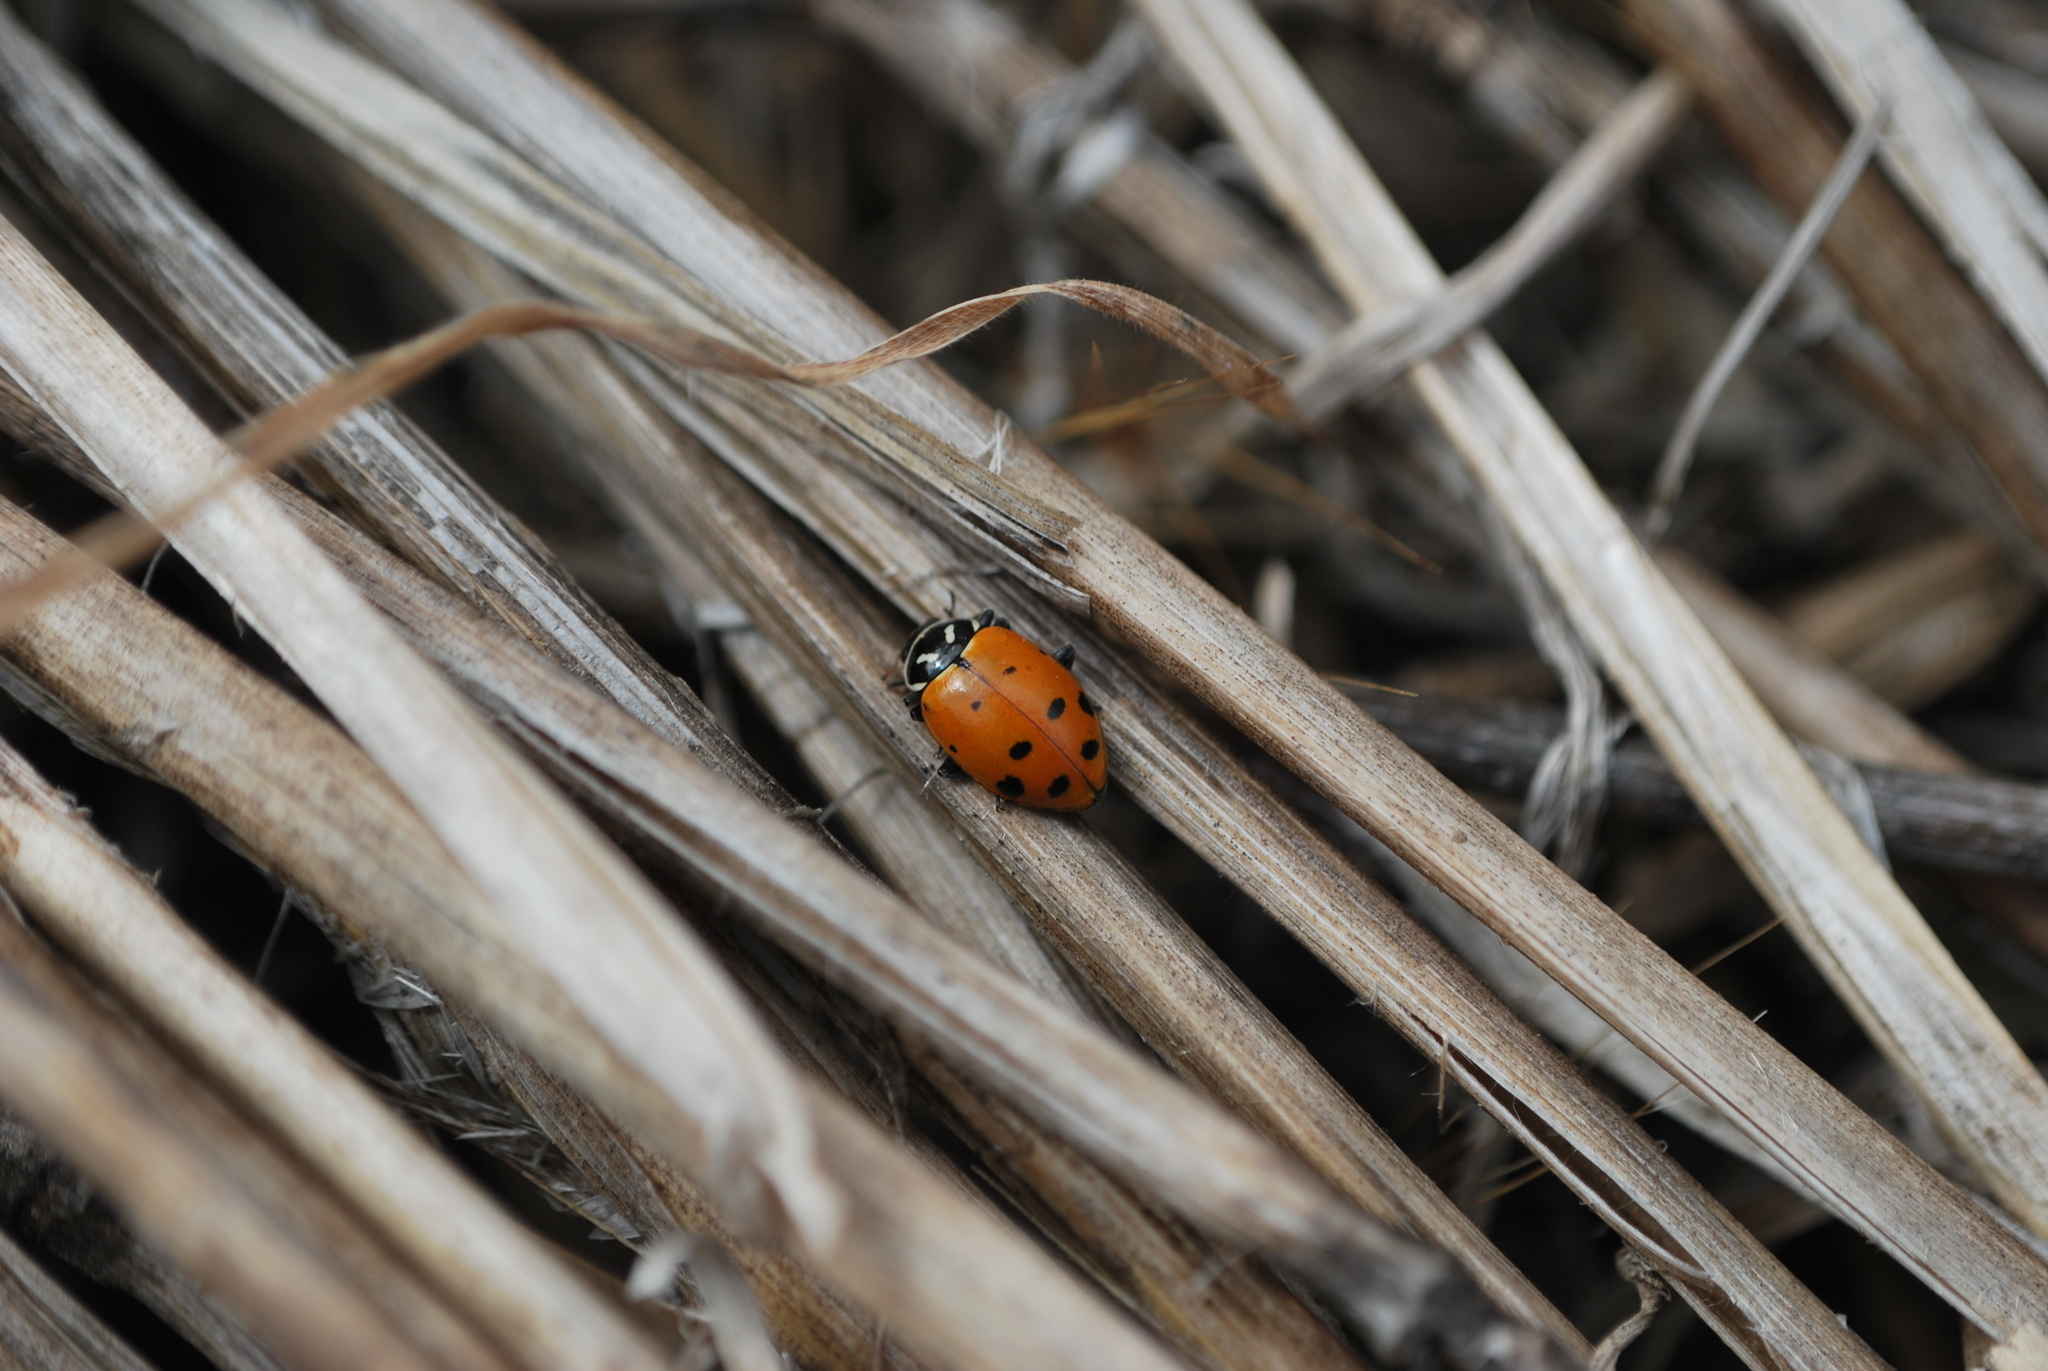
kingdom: Animalia
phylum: Arthropoda
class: Insecta
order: Coleoptera
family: Coccinellidae
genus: Hippodamia
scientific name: Hippodamia convergens
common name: Convergent lady beetle
